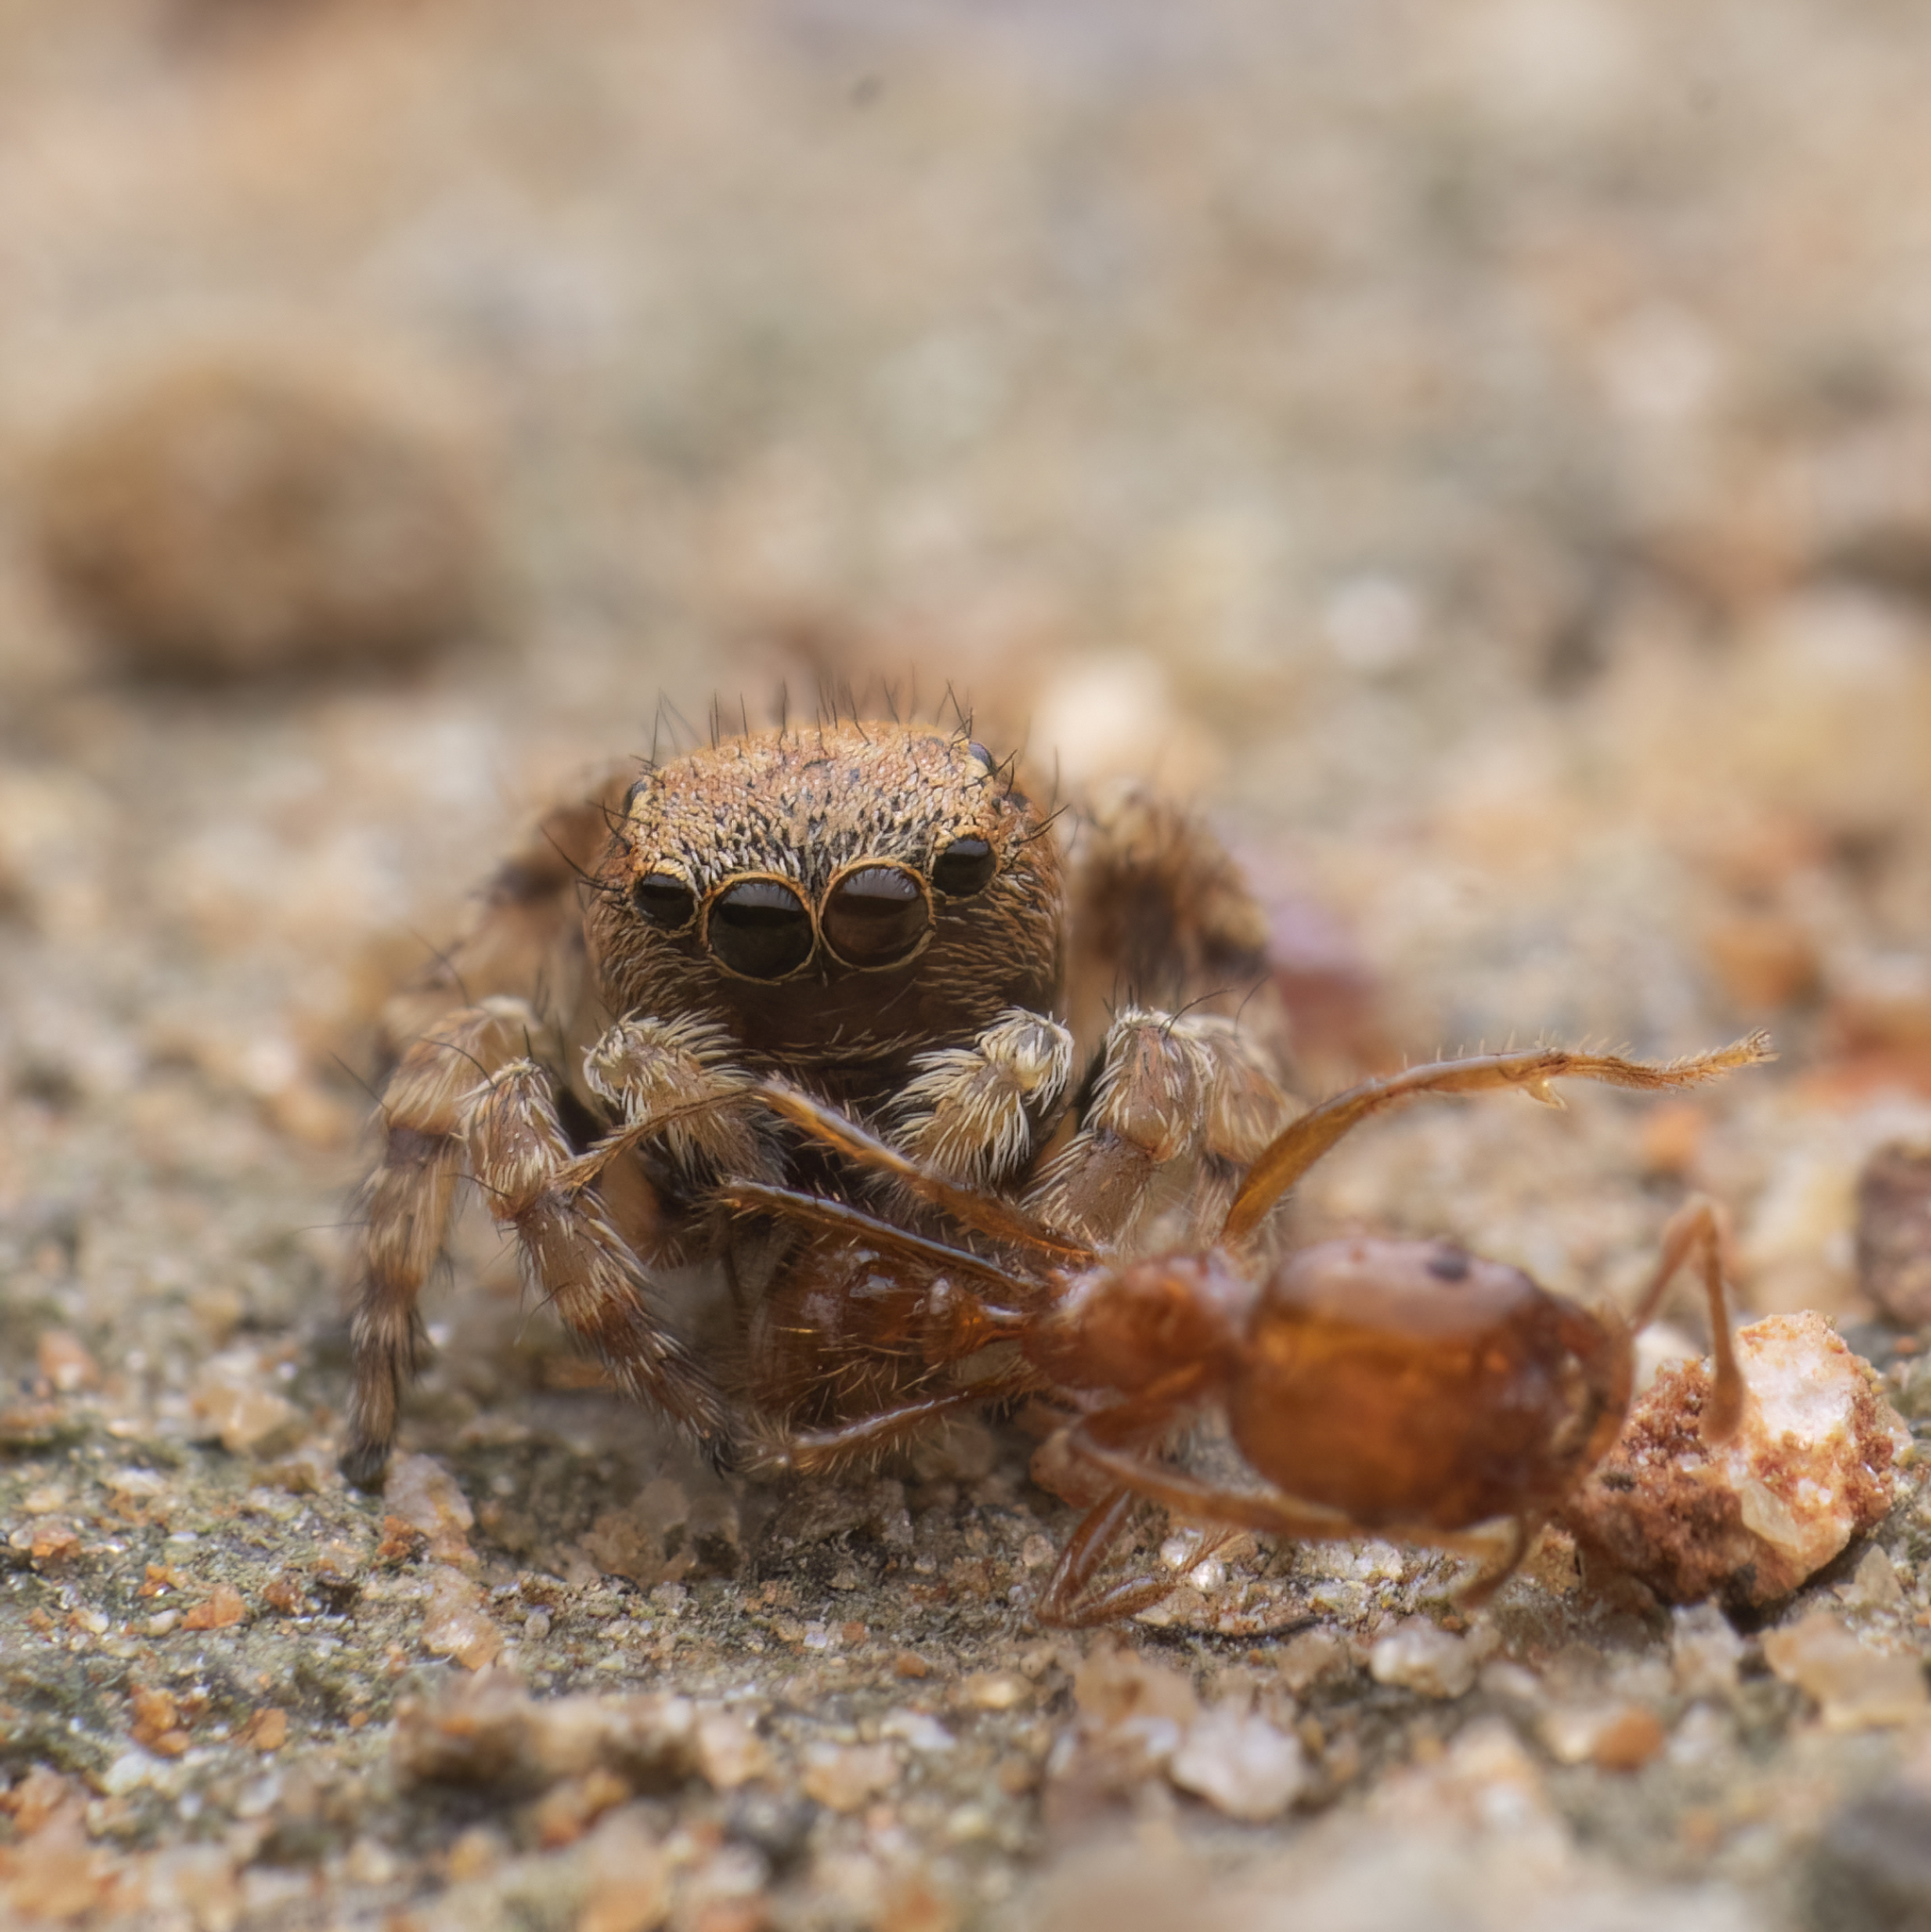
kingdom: Animalia
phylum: Arthropoda
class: Arachnida
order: Araneae
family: Salticidae
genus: Phanuelus
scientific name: Phanuelus gladstone
